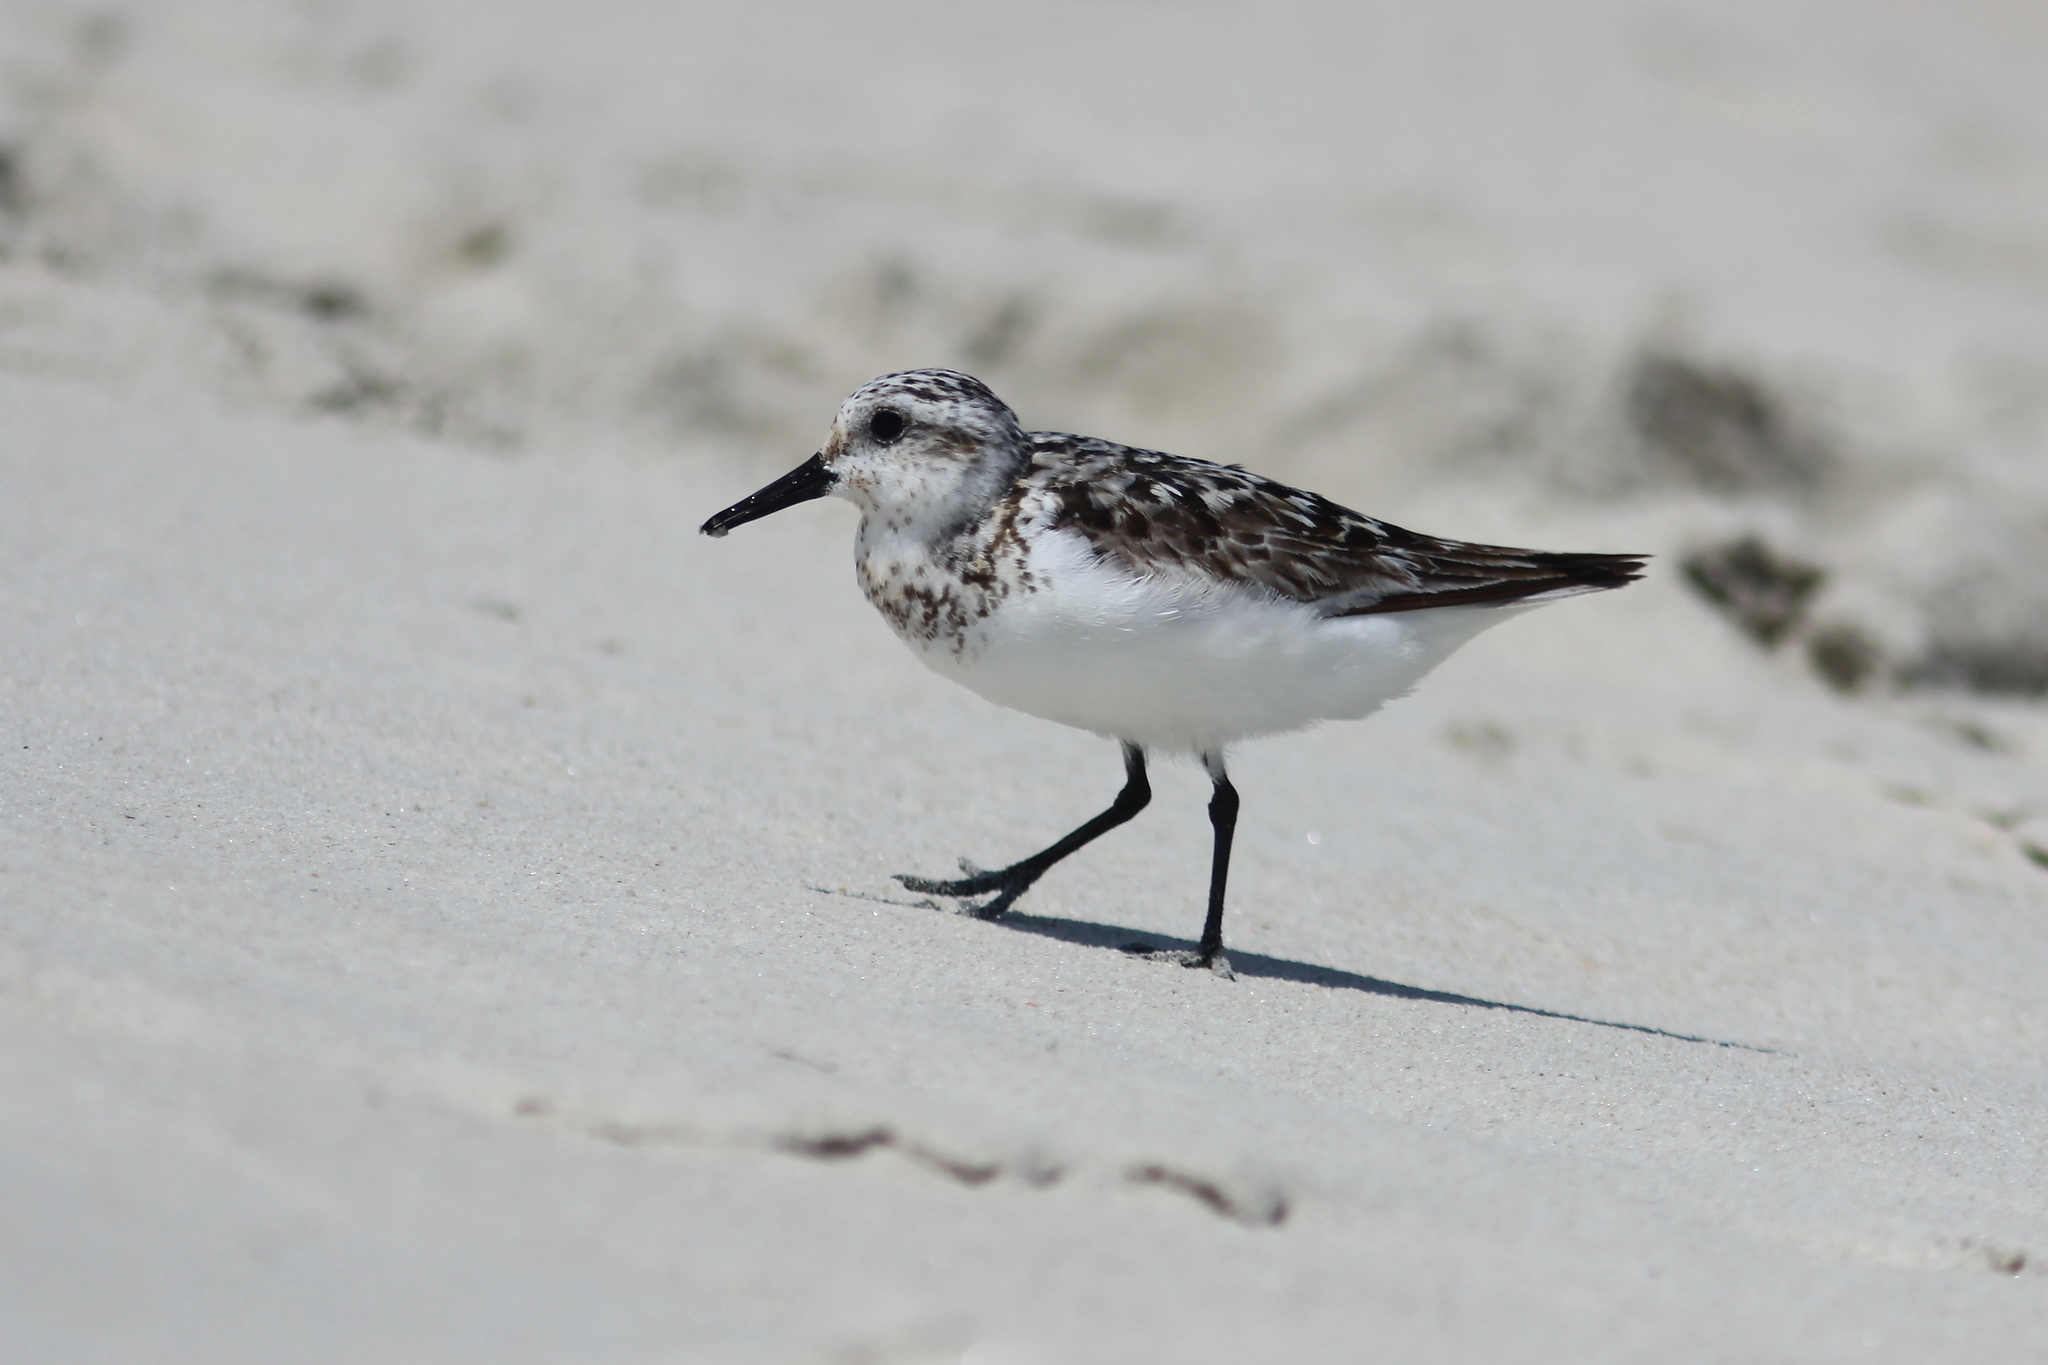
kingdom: Animalia
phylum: Chordata
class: Aves
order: Charadriiformes
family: Scolopacidae
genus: Calidris
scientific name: Calidris alba
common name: Sanderling
